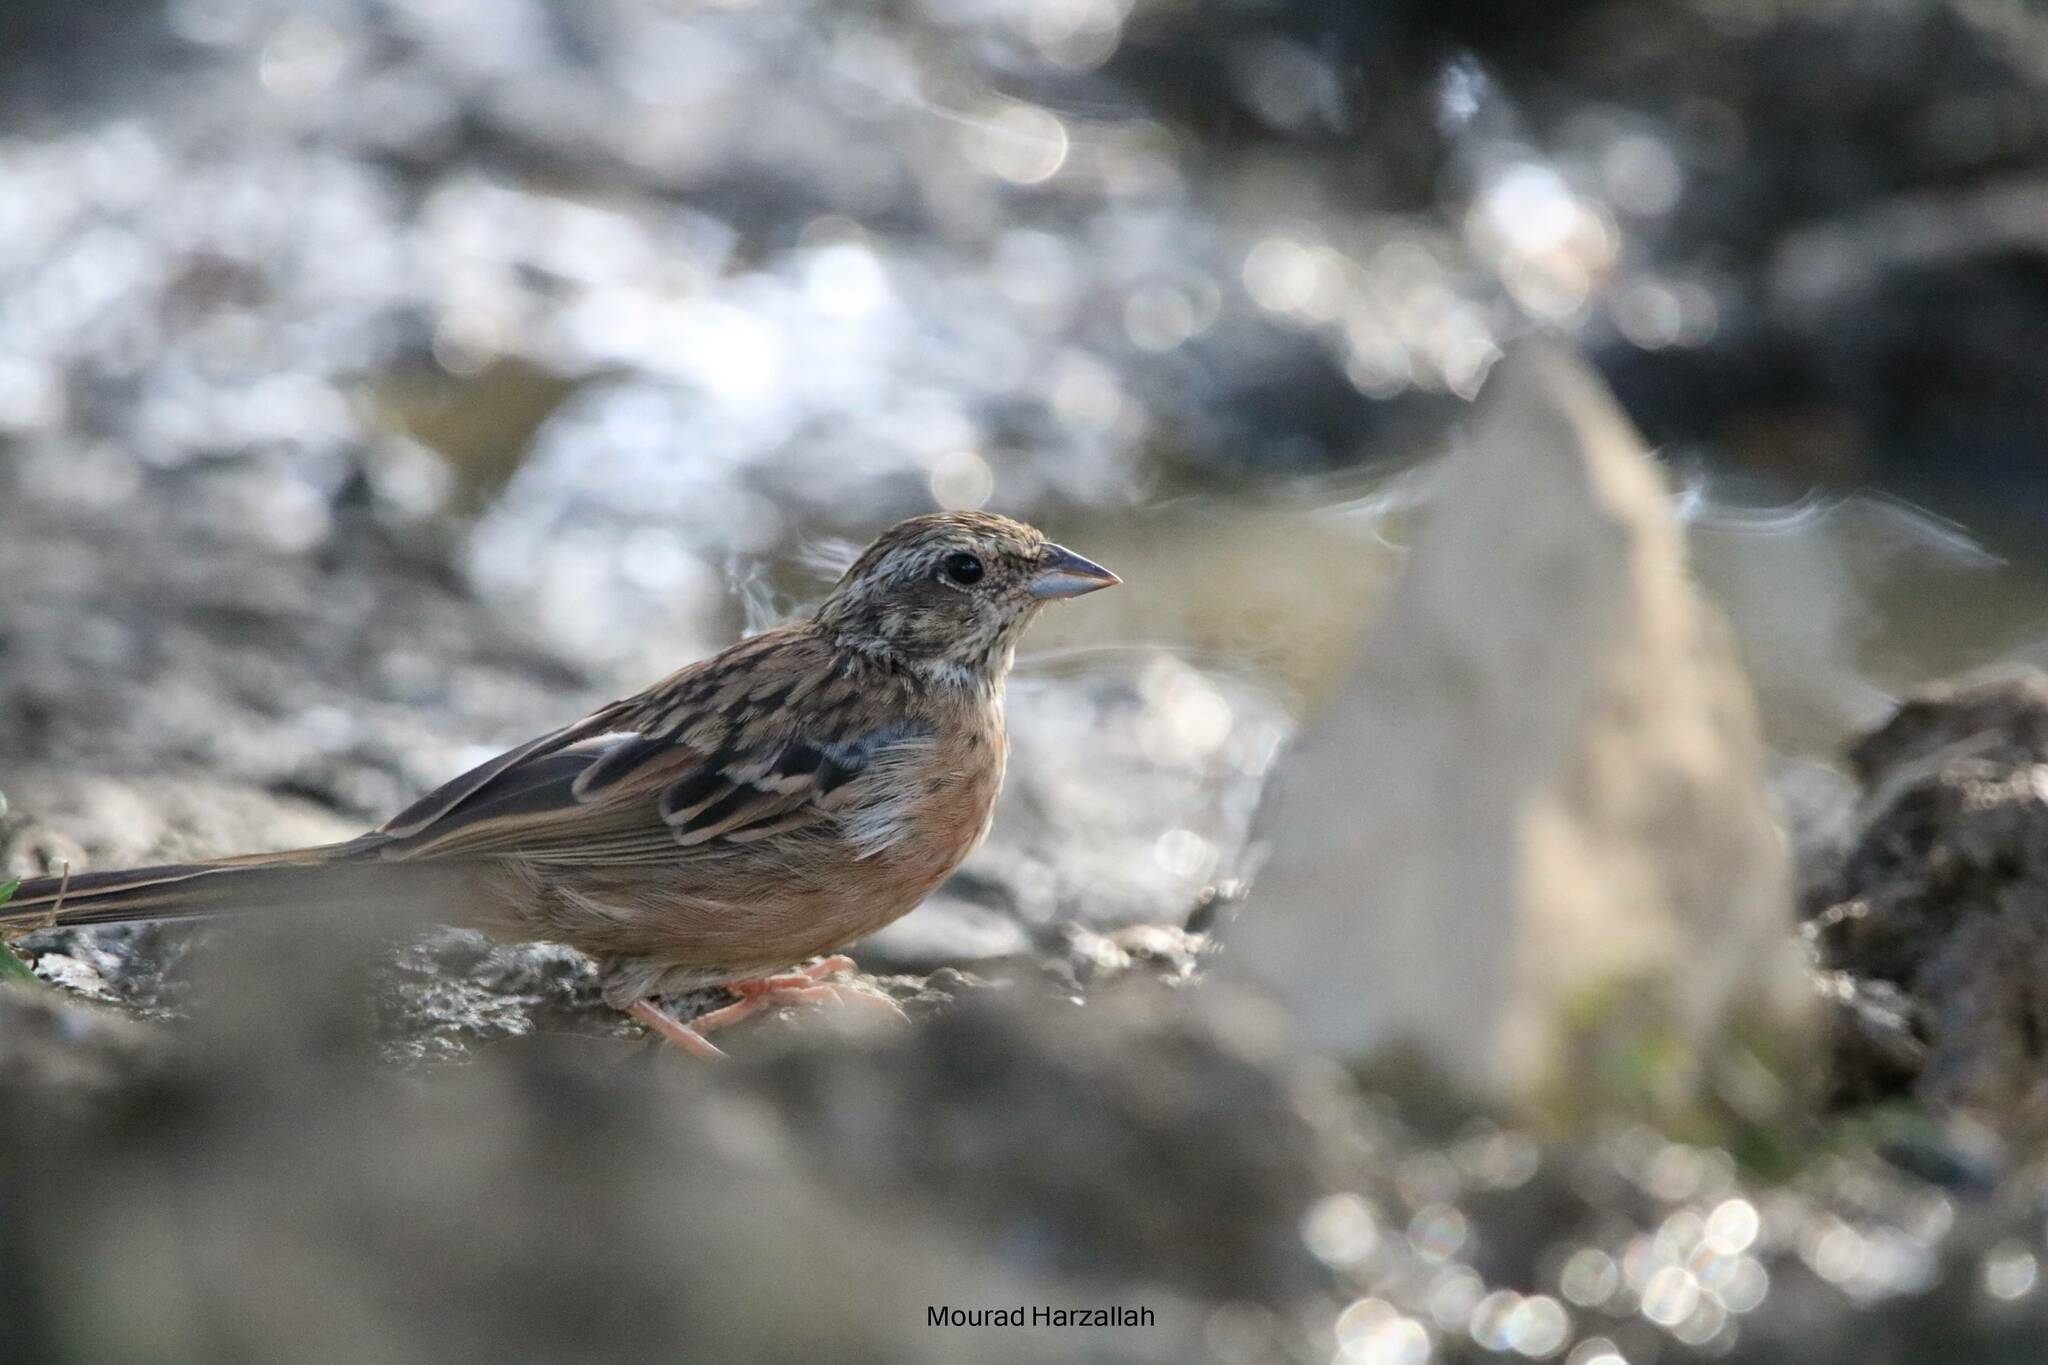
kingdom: Animalia
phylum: Chordata
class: Aves
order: Passeriformes
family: Emberizidae
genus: Emberiza
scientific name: Emberiza cia
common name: Rock bunting
